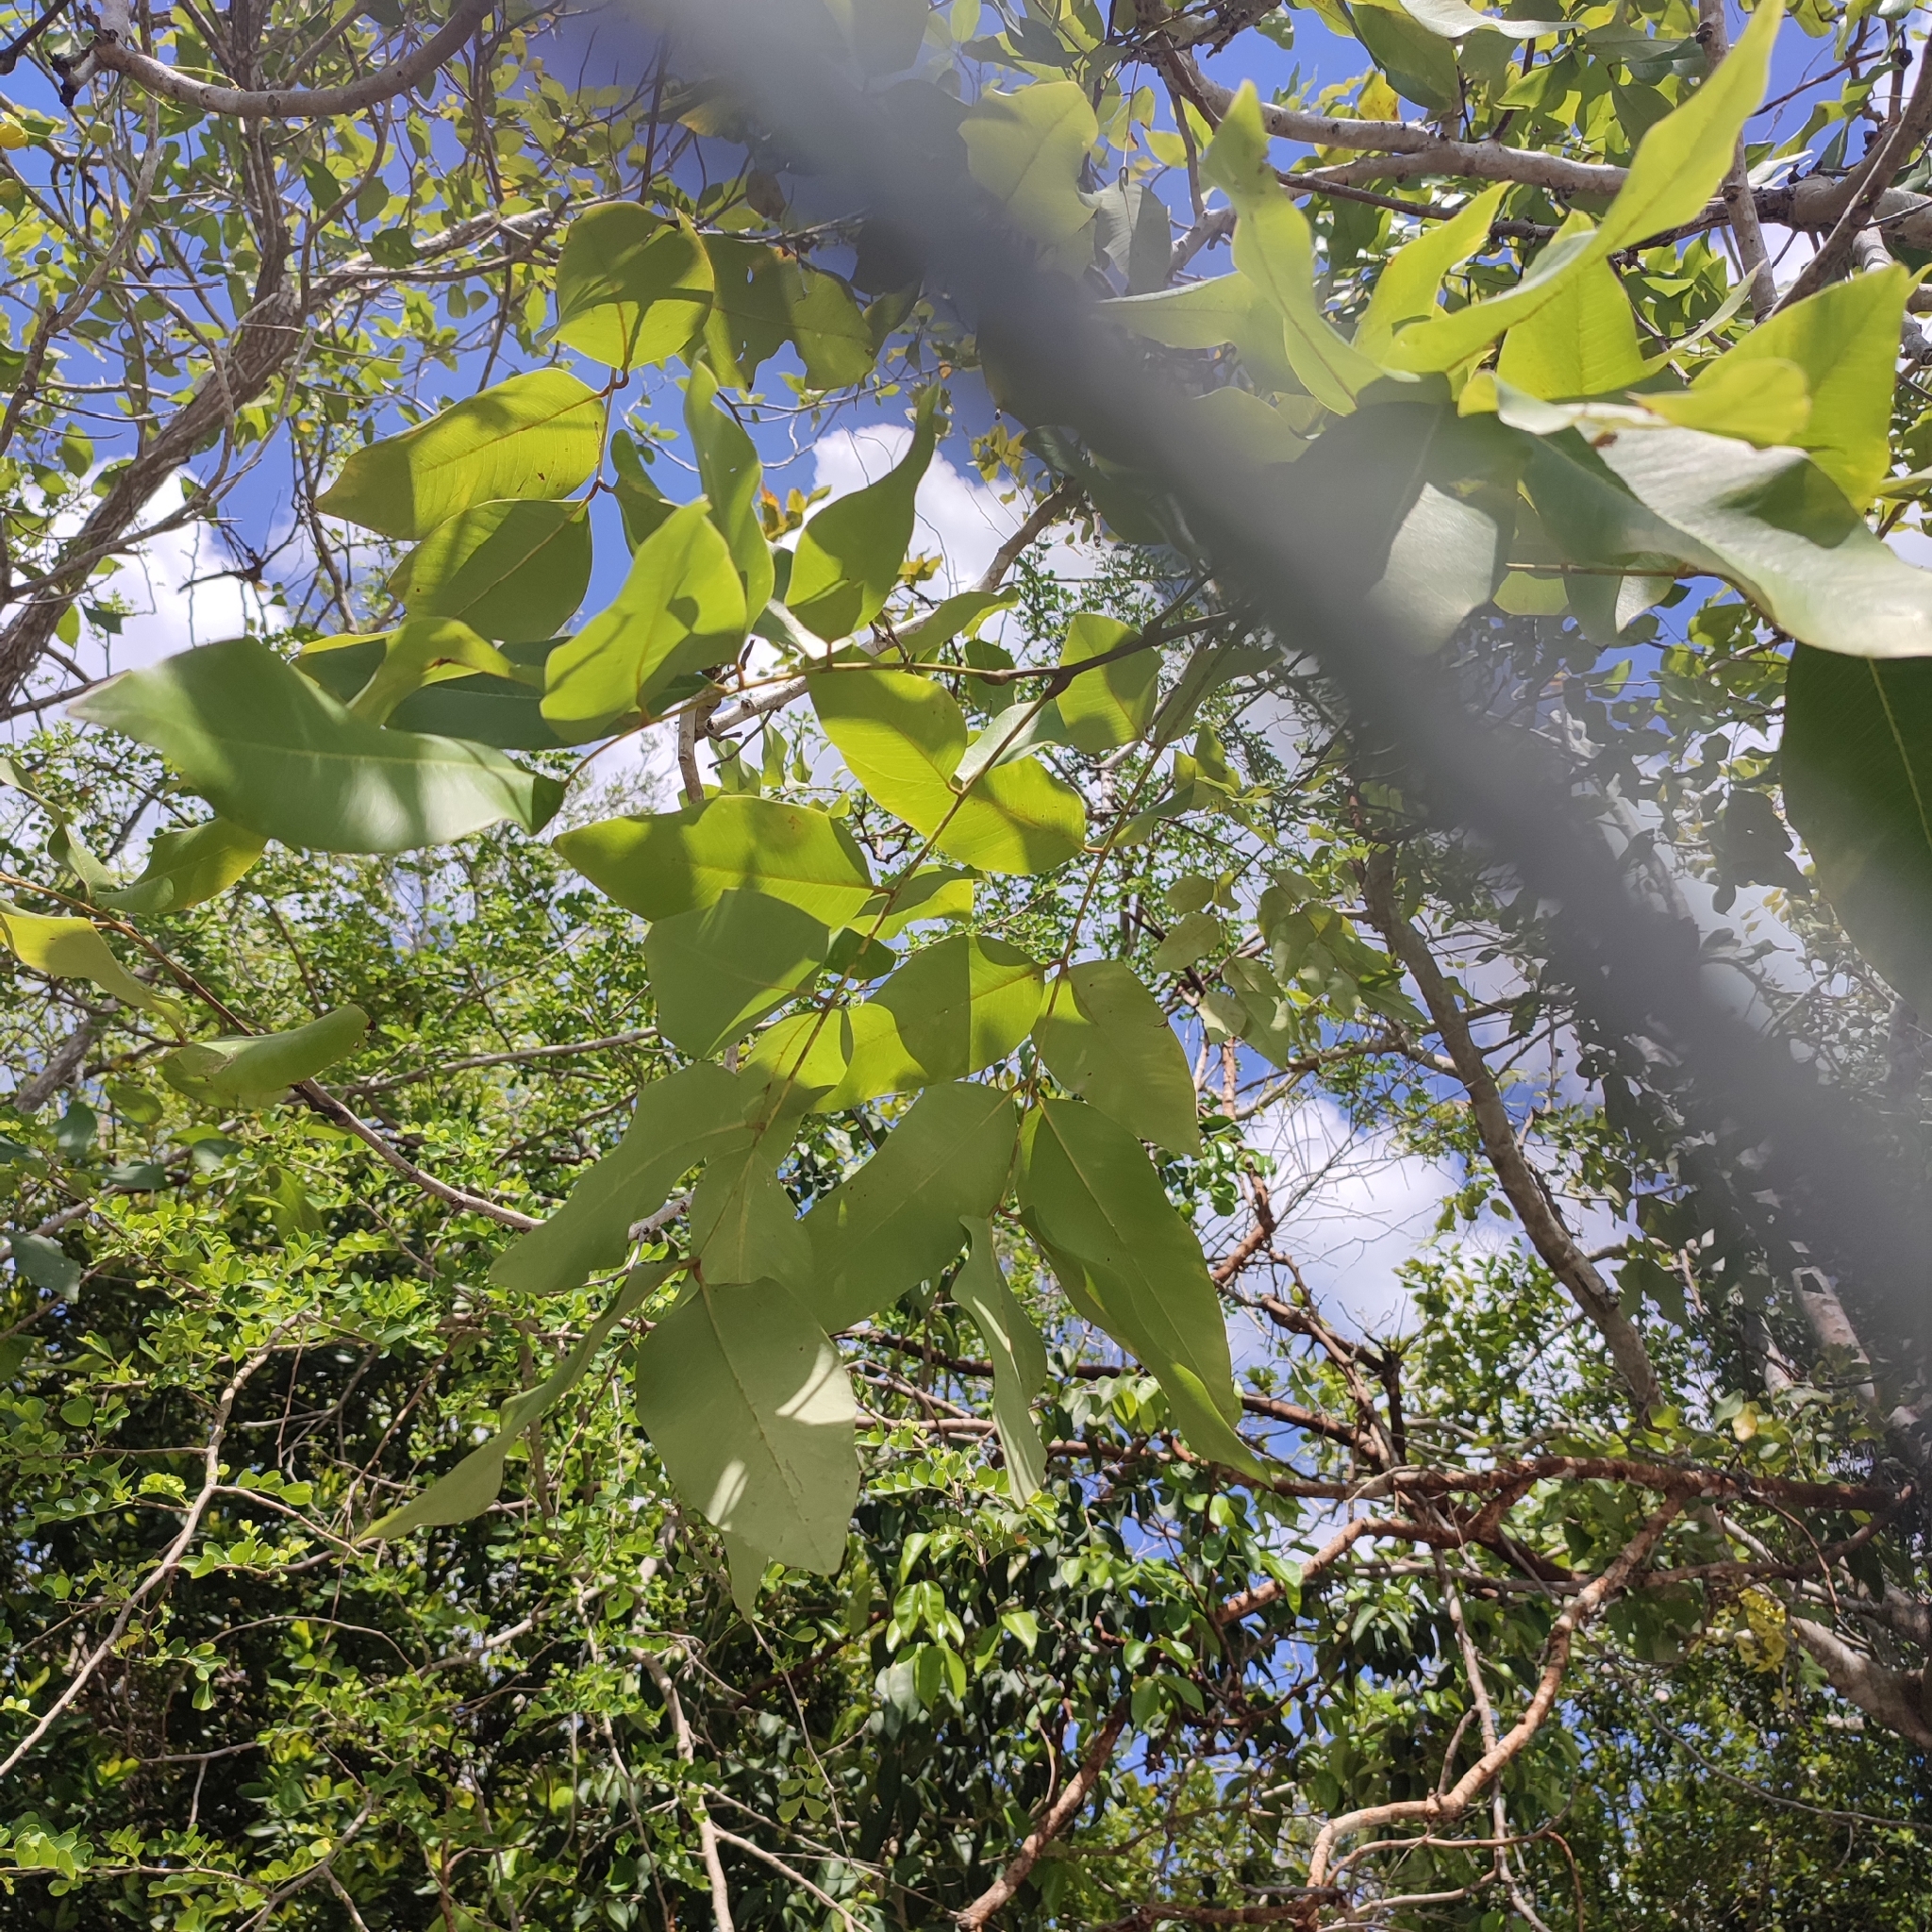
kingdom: Plantae
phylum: Tracheophyta
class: Magnoliopsida
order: Fabales
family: Fabaceae
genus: Cassia
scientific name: Cassia fistula
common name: Golden shower
